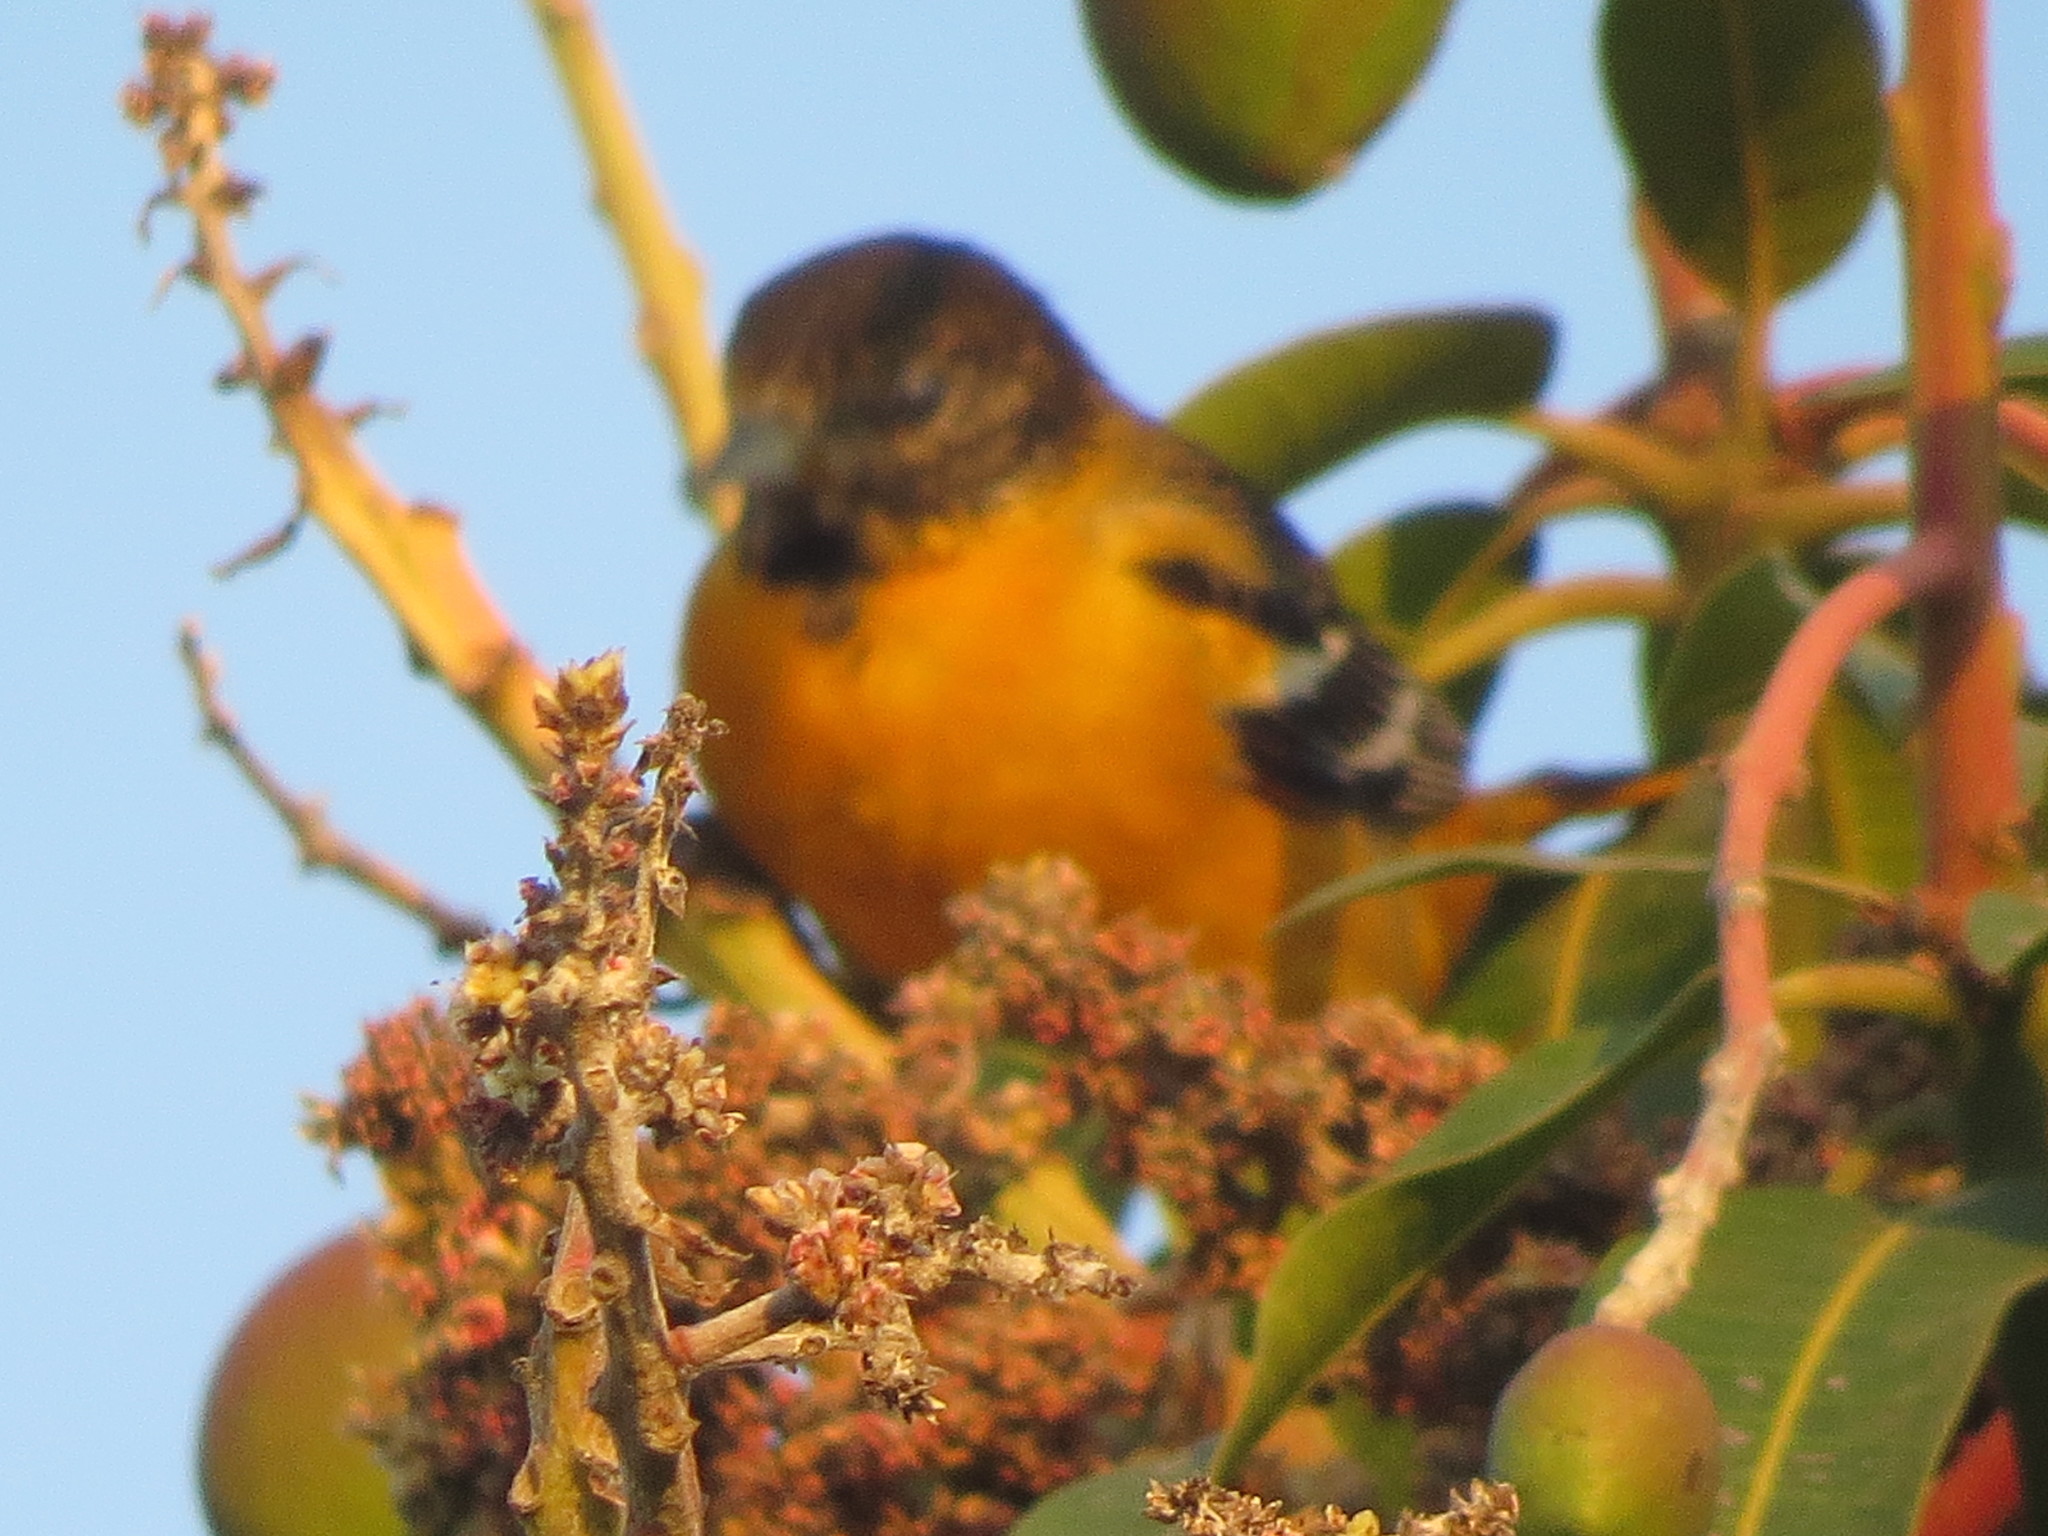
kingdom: Animalia
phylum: Chordata
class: Aves
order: Passeriformes
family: Icteridae
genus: Icterus
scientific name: Icterus galbula
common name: Baltimore oriole
